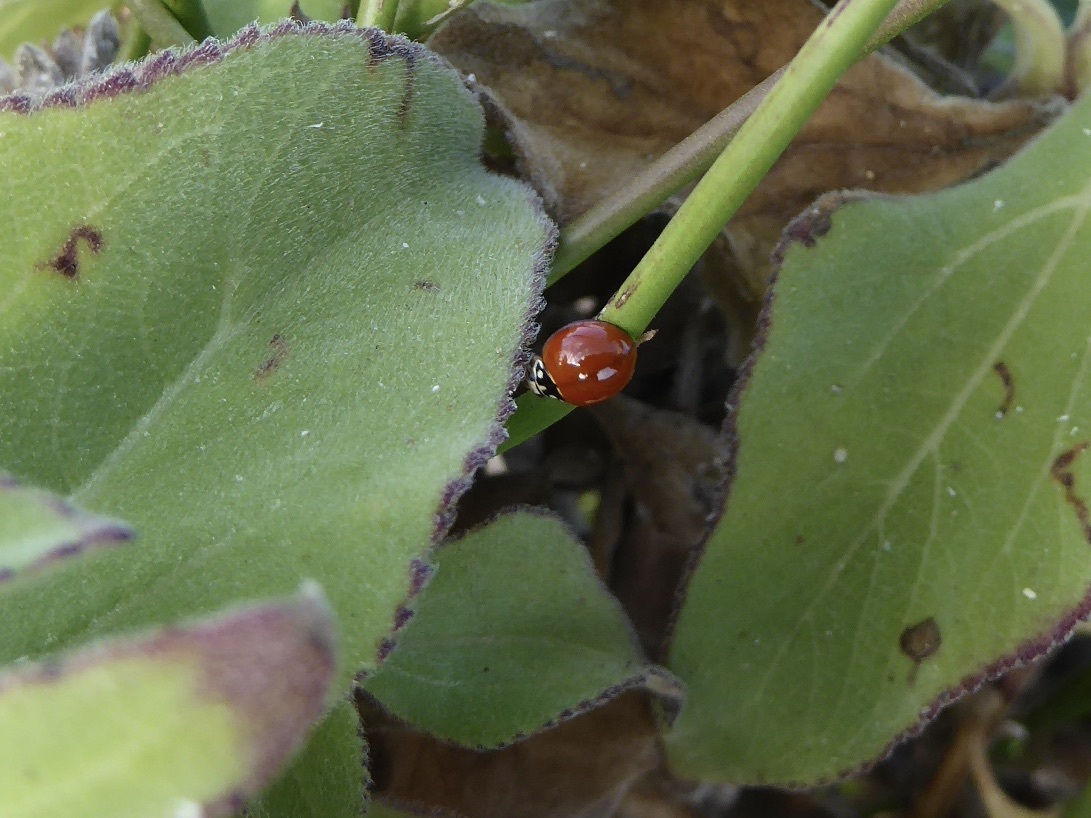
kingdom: Animalia
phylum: Arthropoda
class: Insecta
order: Coleoptera
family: Coccinellidae
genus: Cycloneda
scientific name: Cycloneda sanguinea
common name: Ladybird beetle
